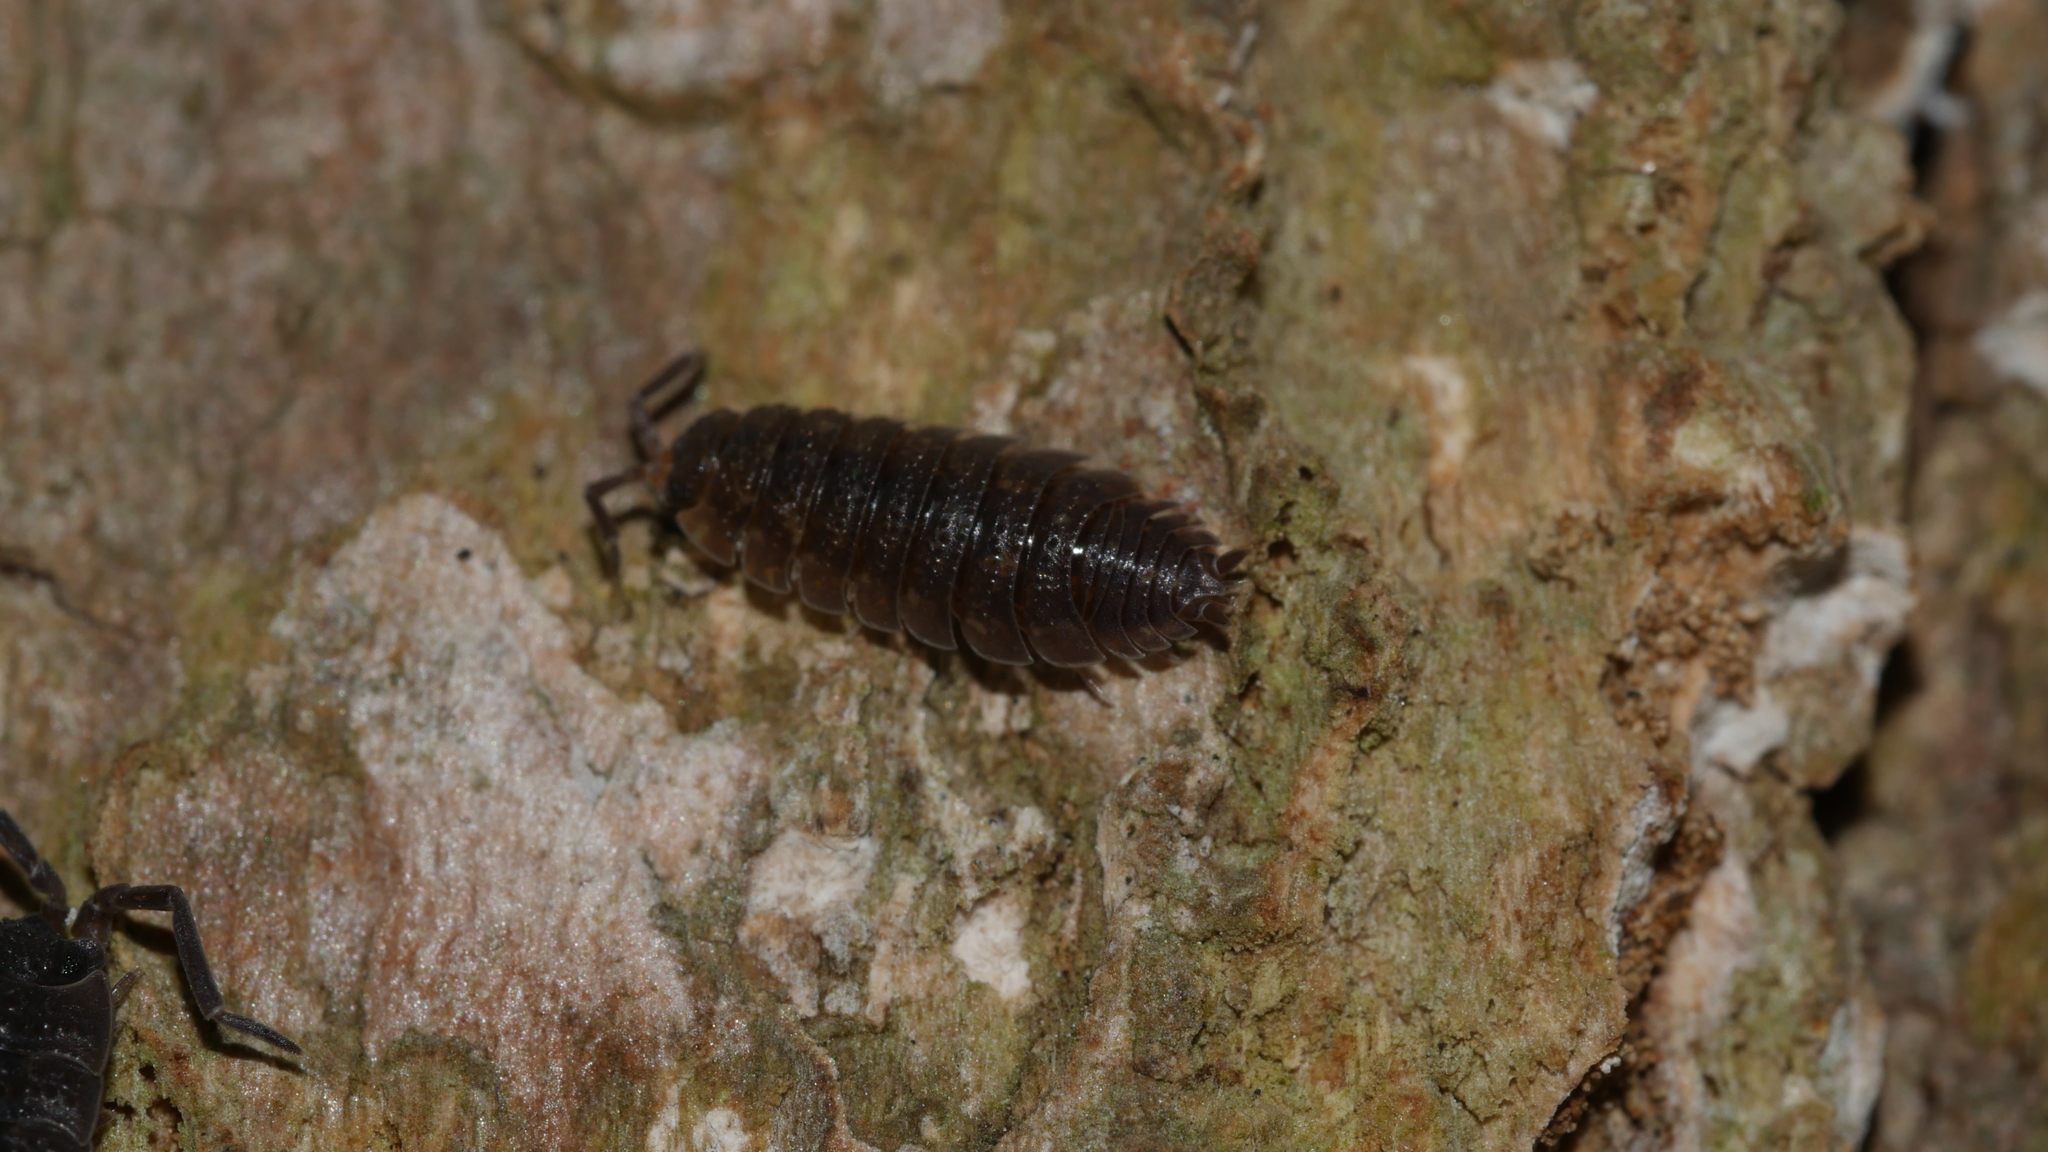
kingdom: Animalia
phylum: Arthropoda
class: Malacostraca
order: Isopoda
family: Porcellionidae
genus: Porcellio
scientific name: Porcellio scaber
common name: Common rough woodlouse
